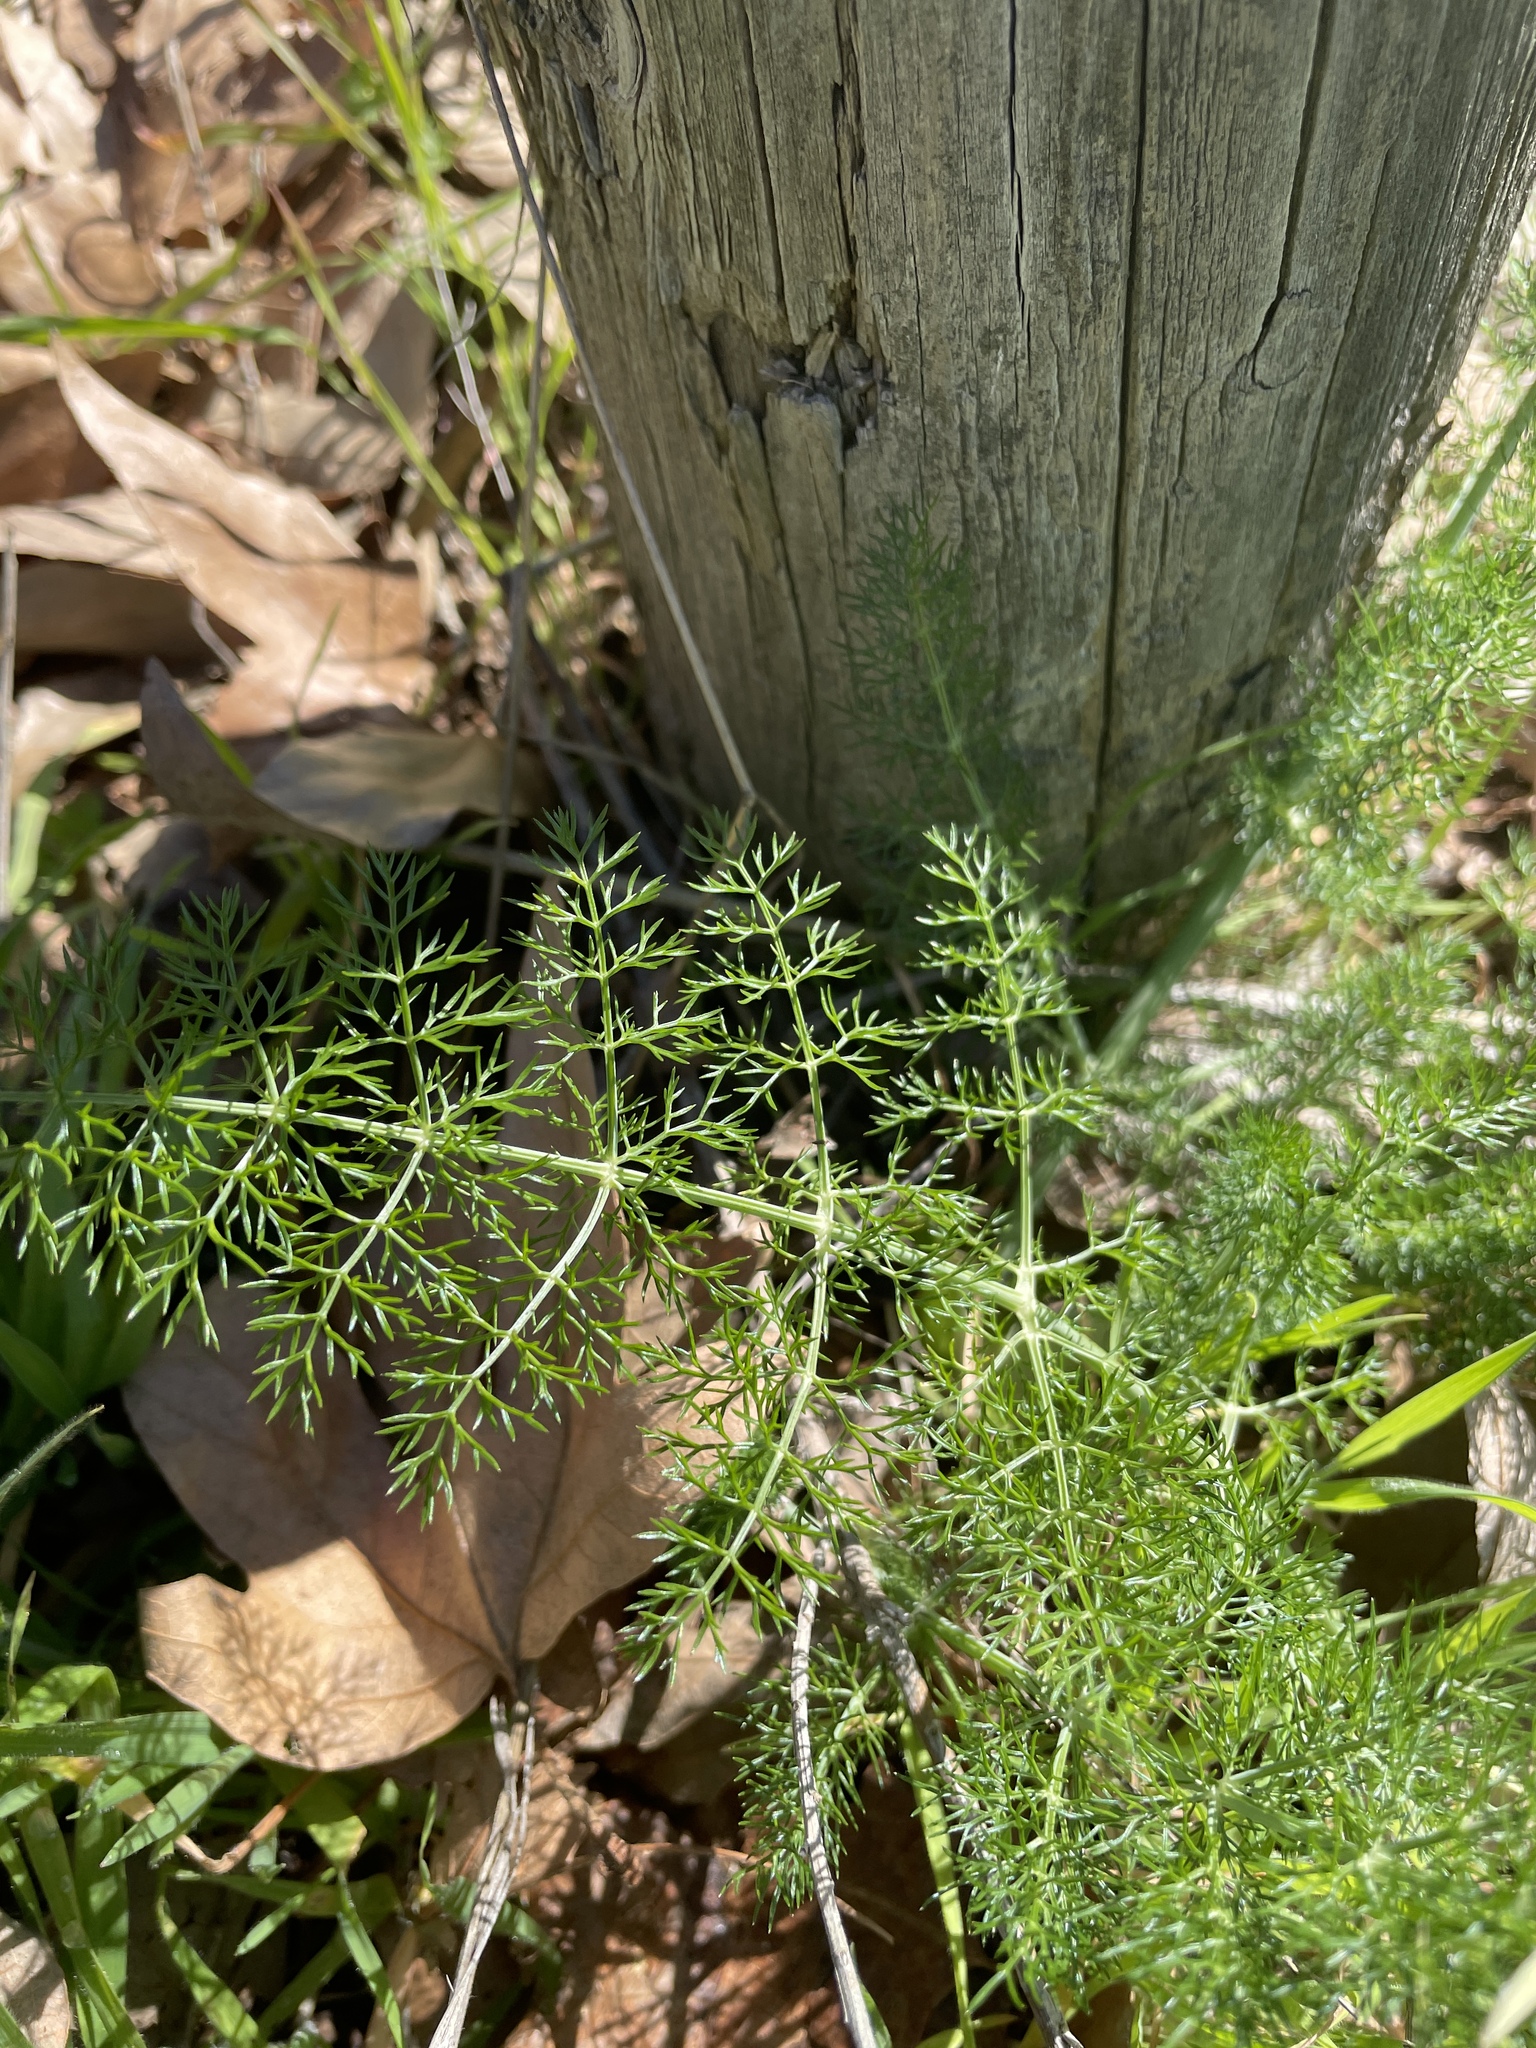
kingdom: Plantae
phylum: Tracheophyta
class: Magnoliopsida
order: Apiales
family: Apiaceae
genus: Foeniculum
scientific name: Foeniculum vulgare
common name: Fennel
